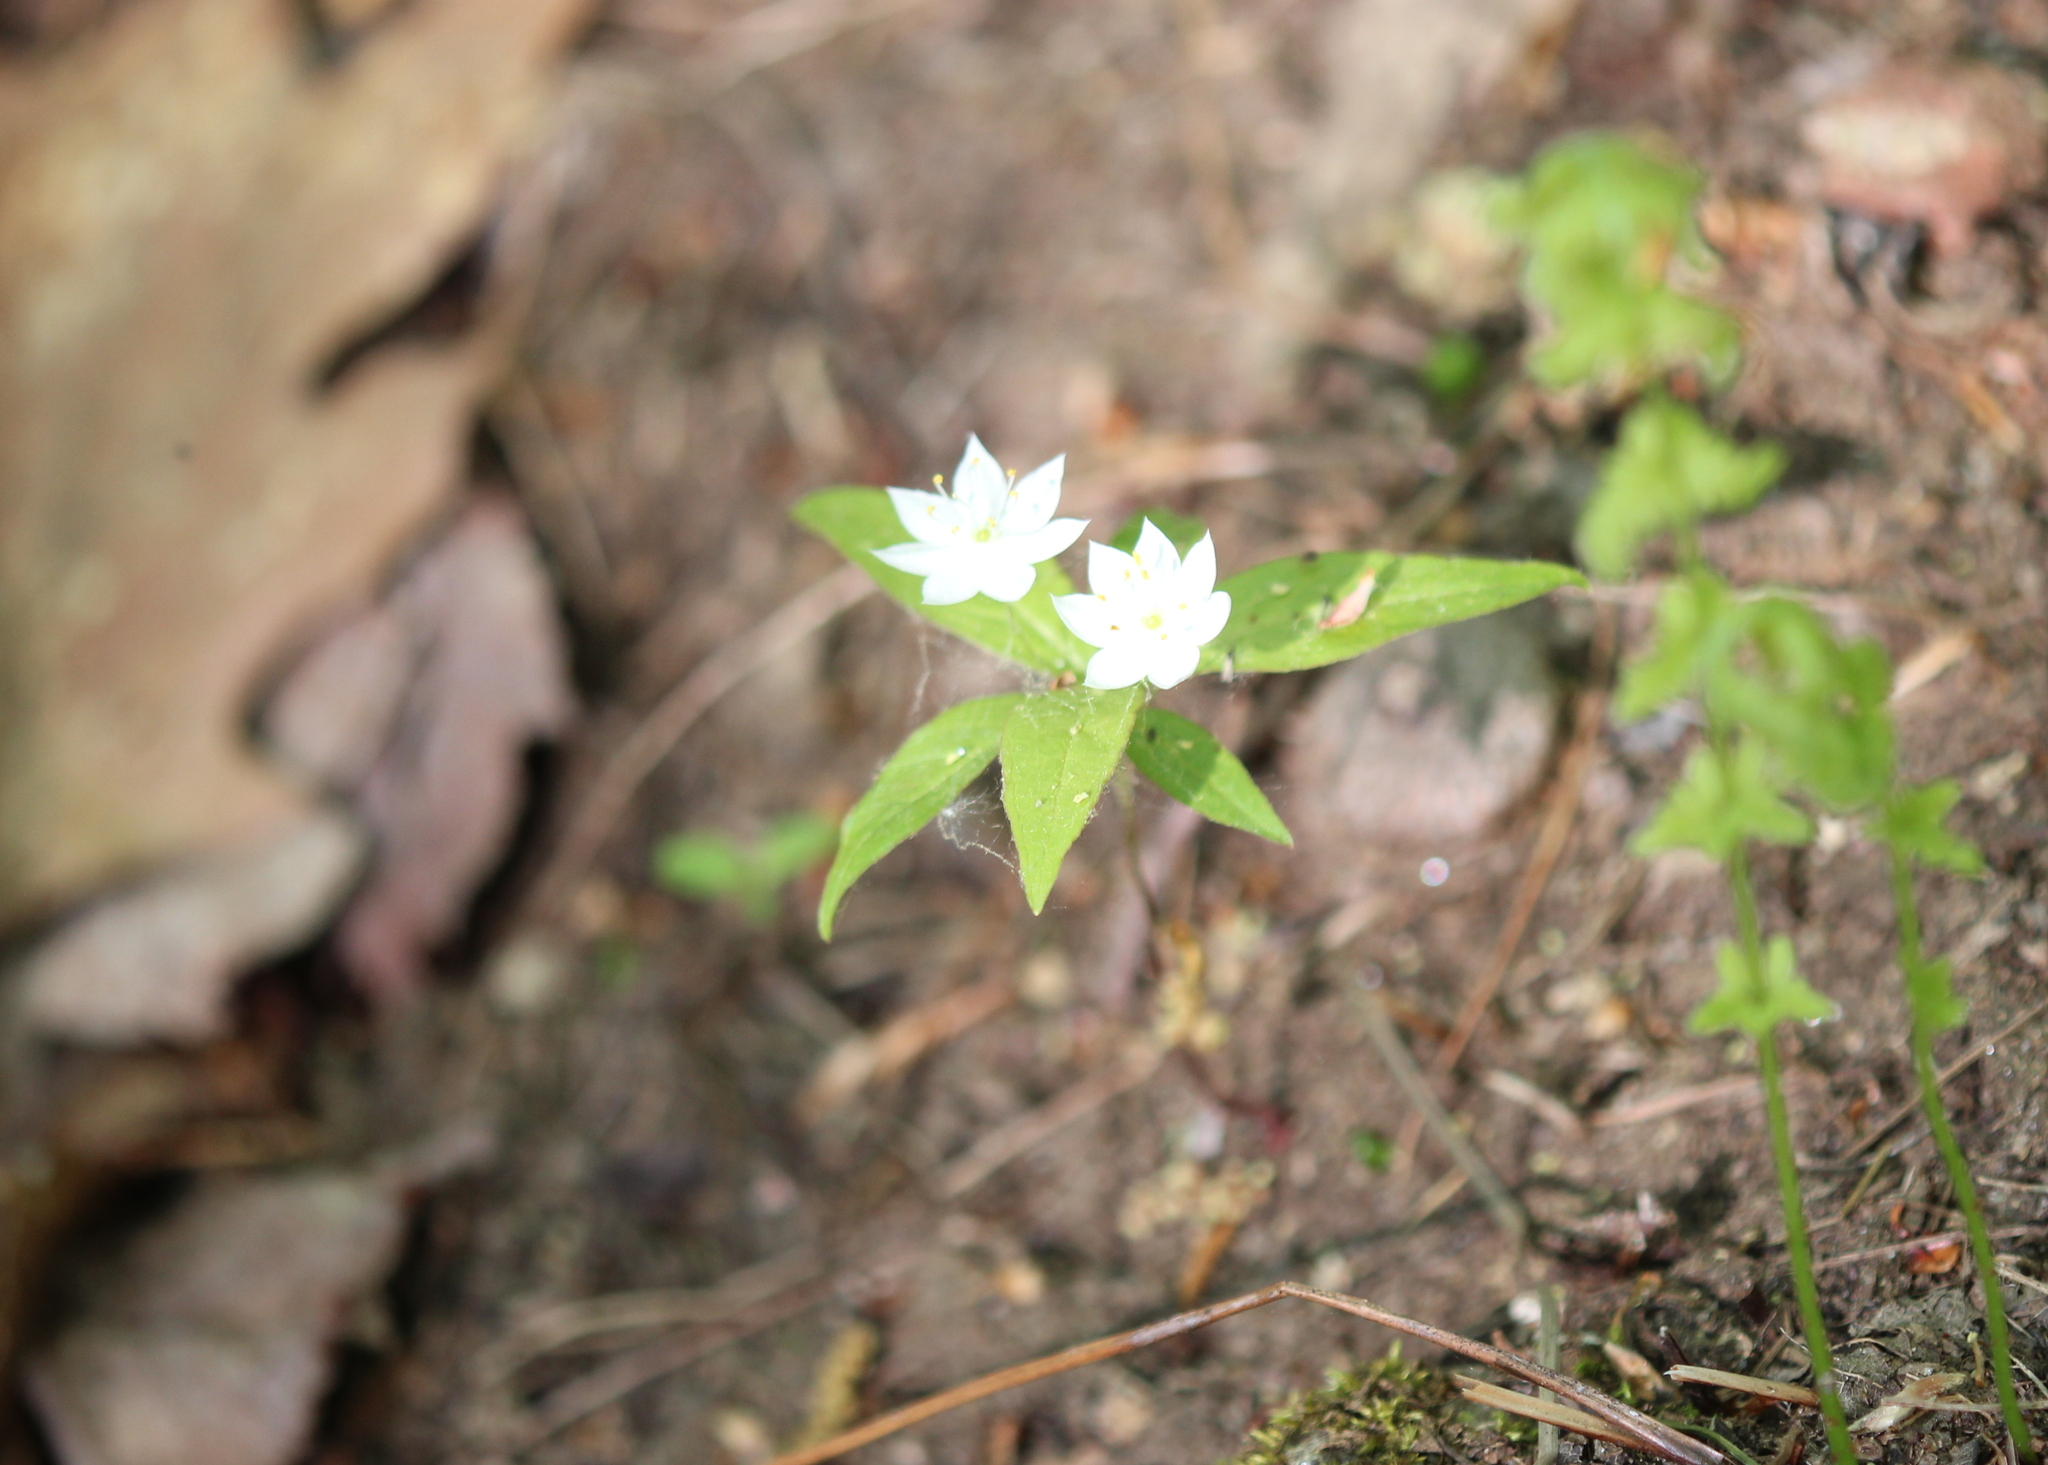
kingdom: Plantae
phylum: Tracheophyta
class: Magnoliopsida
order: Ericales
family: Primulaceae
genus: Lysimachia
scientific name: Lysimachia borealis
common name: American starflower
